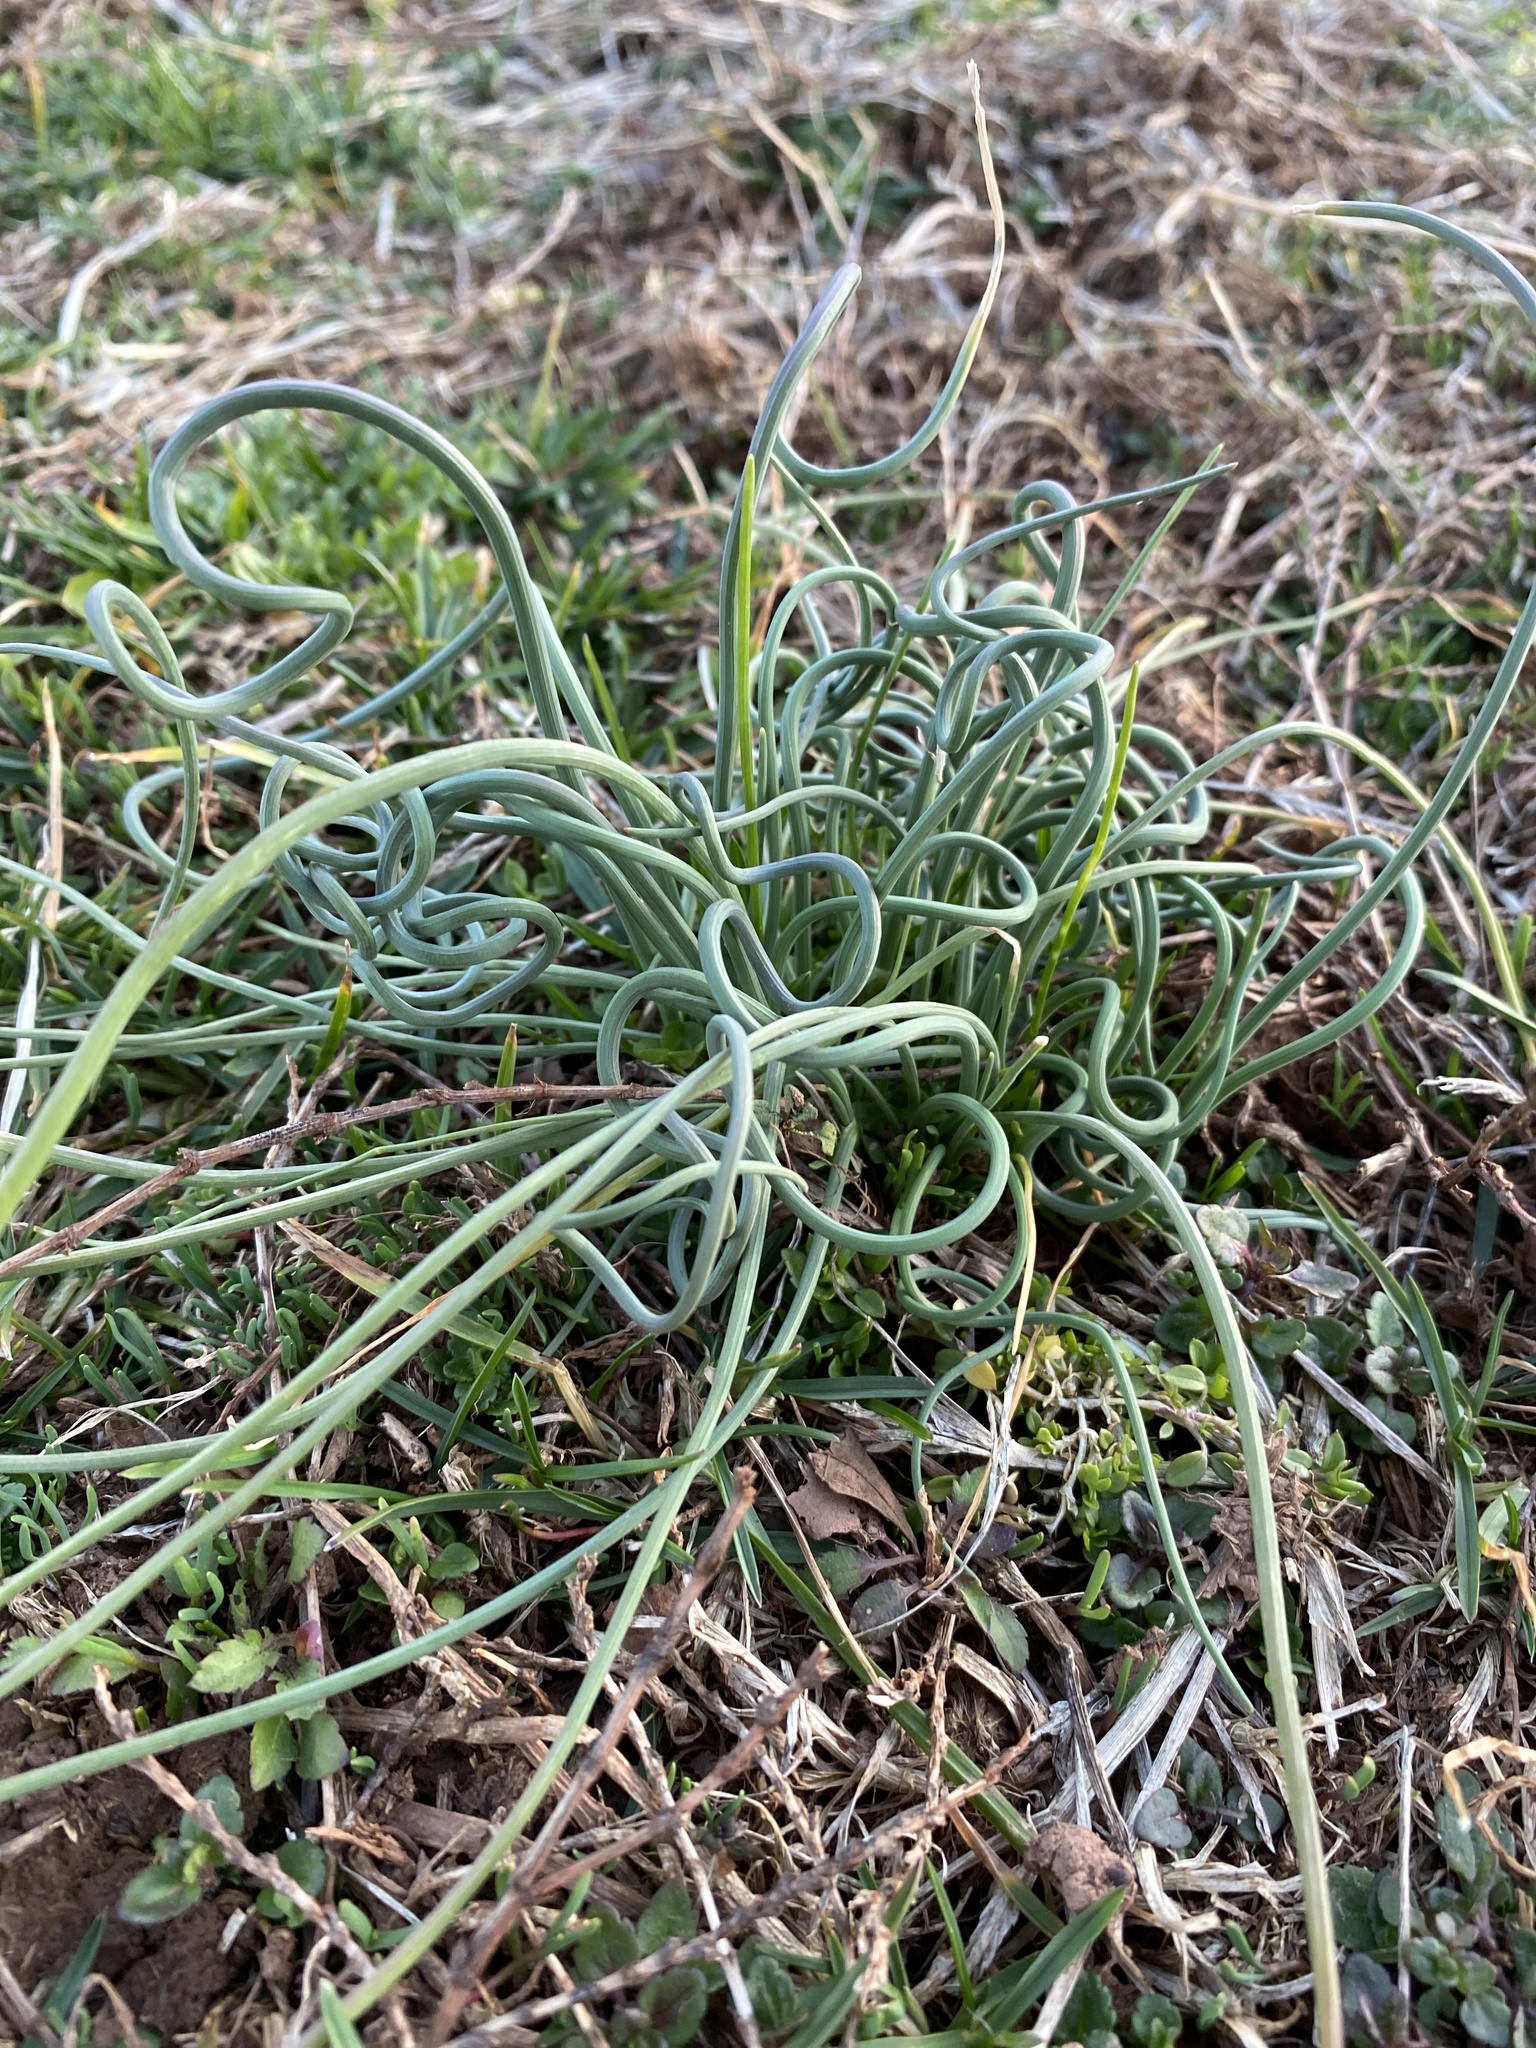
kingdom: Plantae
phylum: Tracheophyta
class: Liliopsida
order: Asparagales
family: Amaryllidaceae
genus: Allium
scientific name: Allium vineale
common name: Crow garlic
